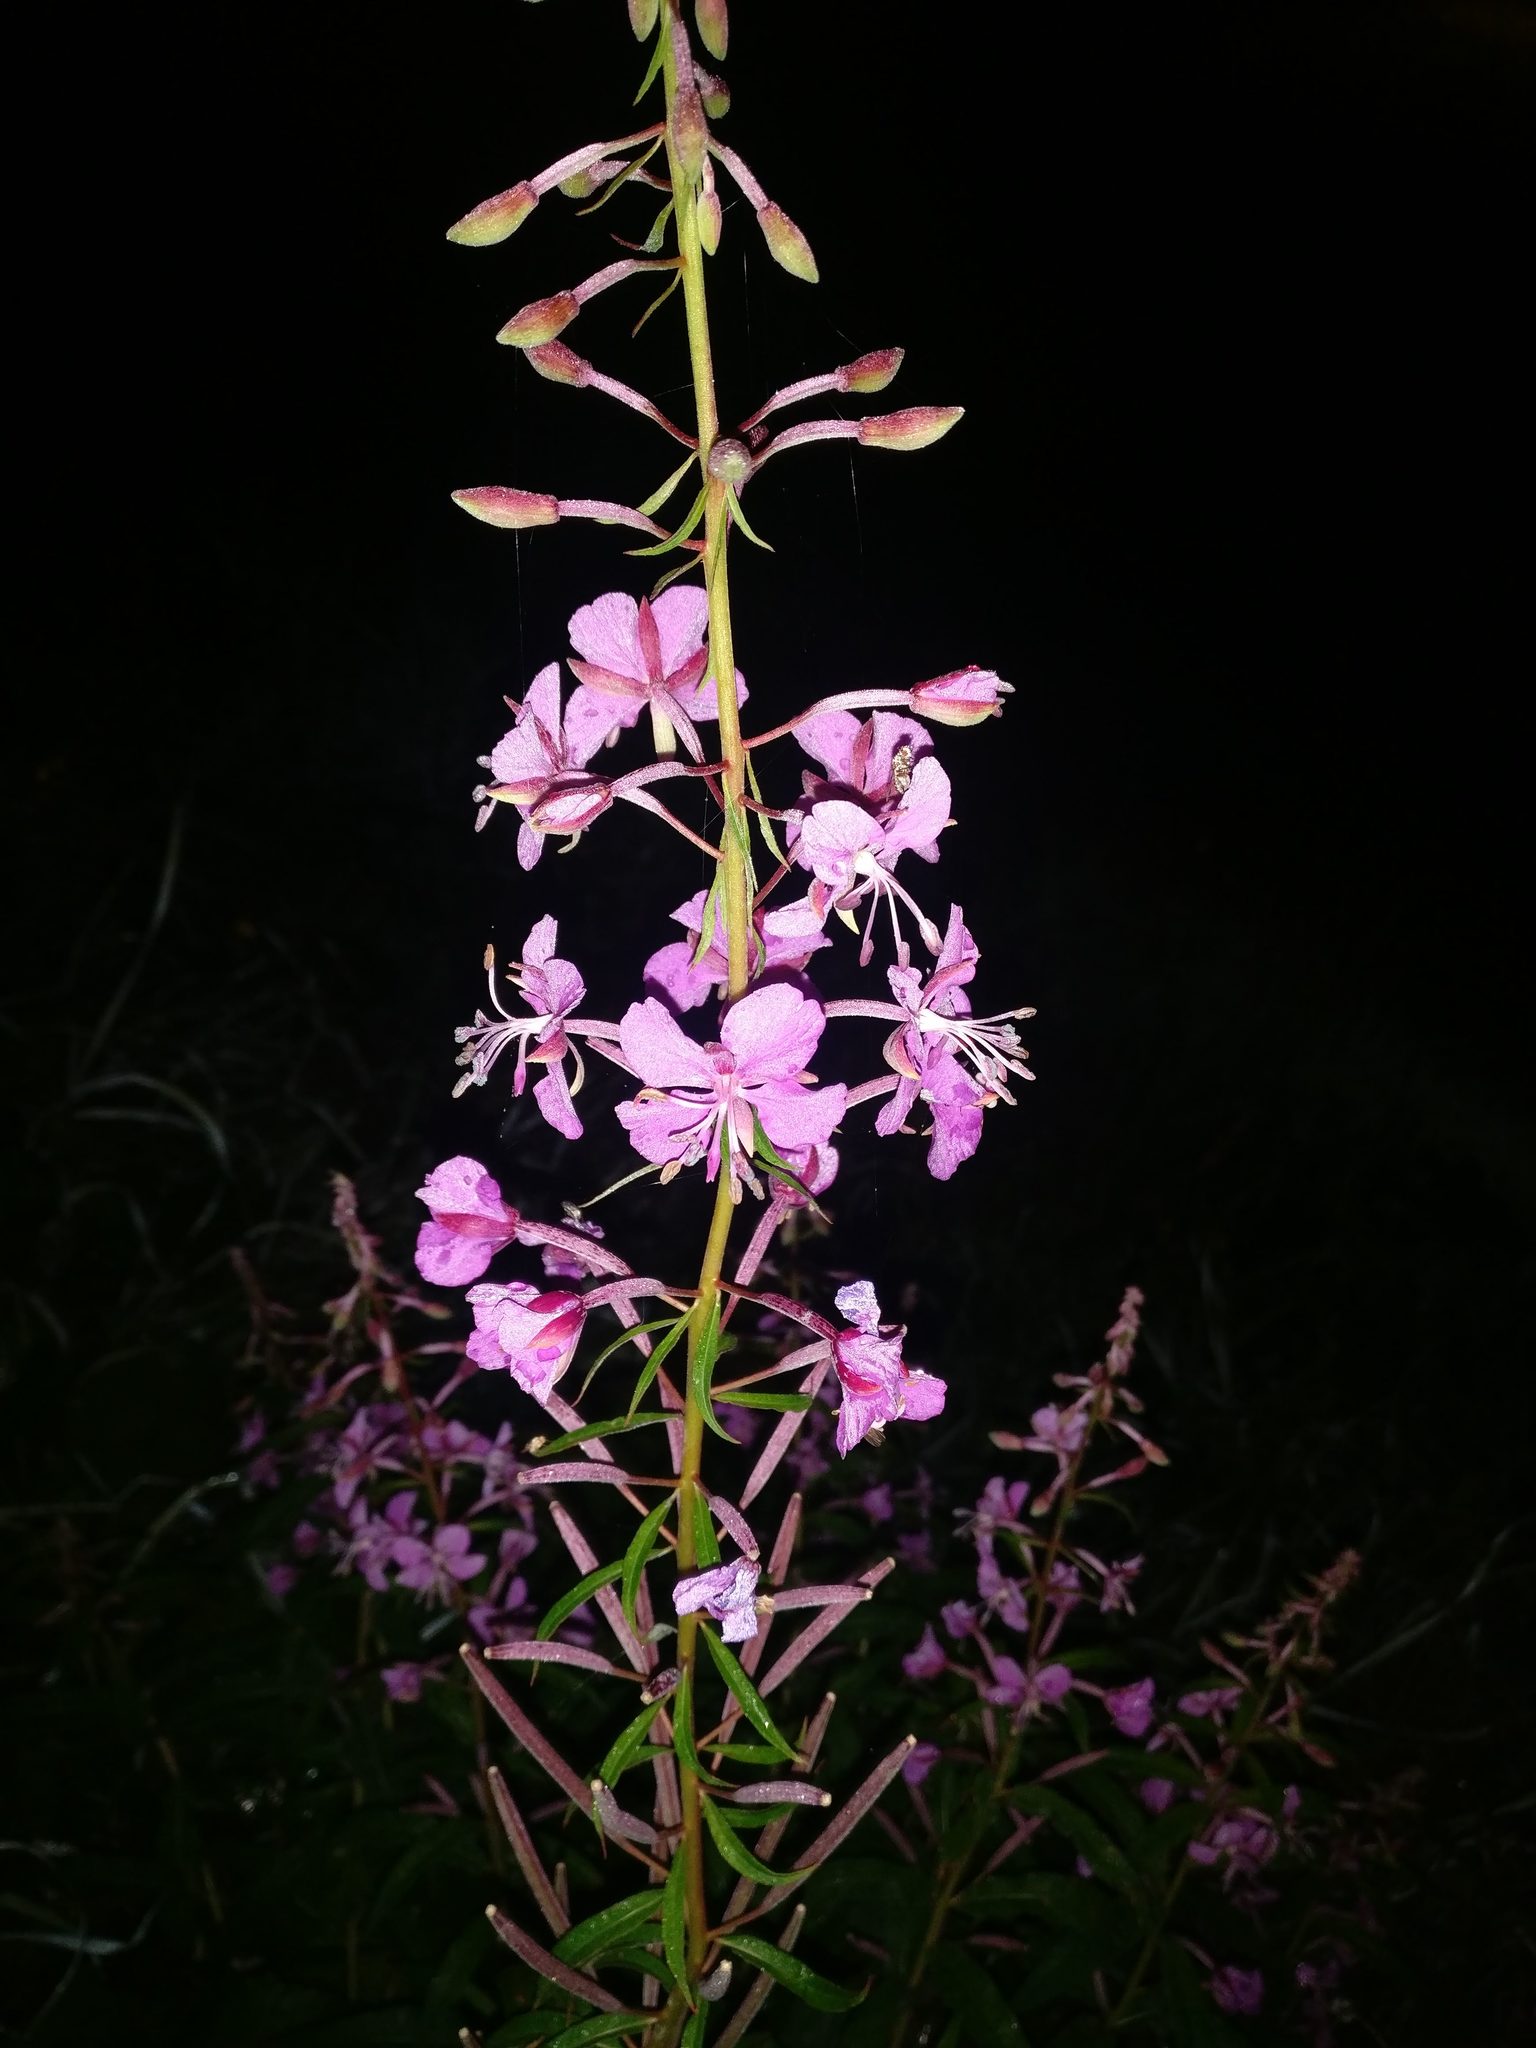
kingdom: Plantae
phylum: Tracheophyta
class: Magnoliopsida
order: Myrtales
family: Onagraceae
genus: Chamaenerion
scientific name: Chamaenerion angustifolium
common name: Fireweed
